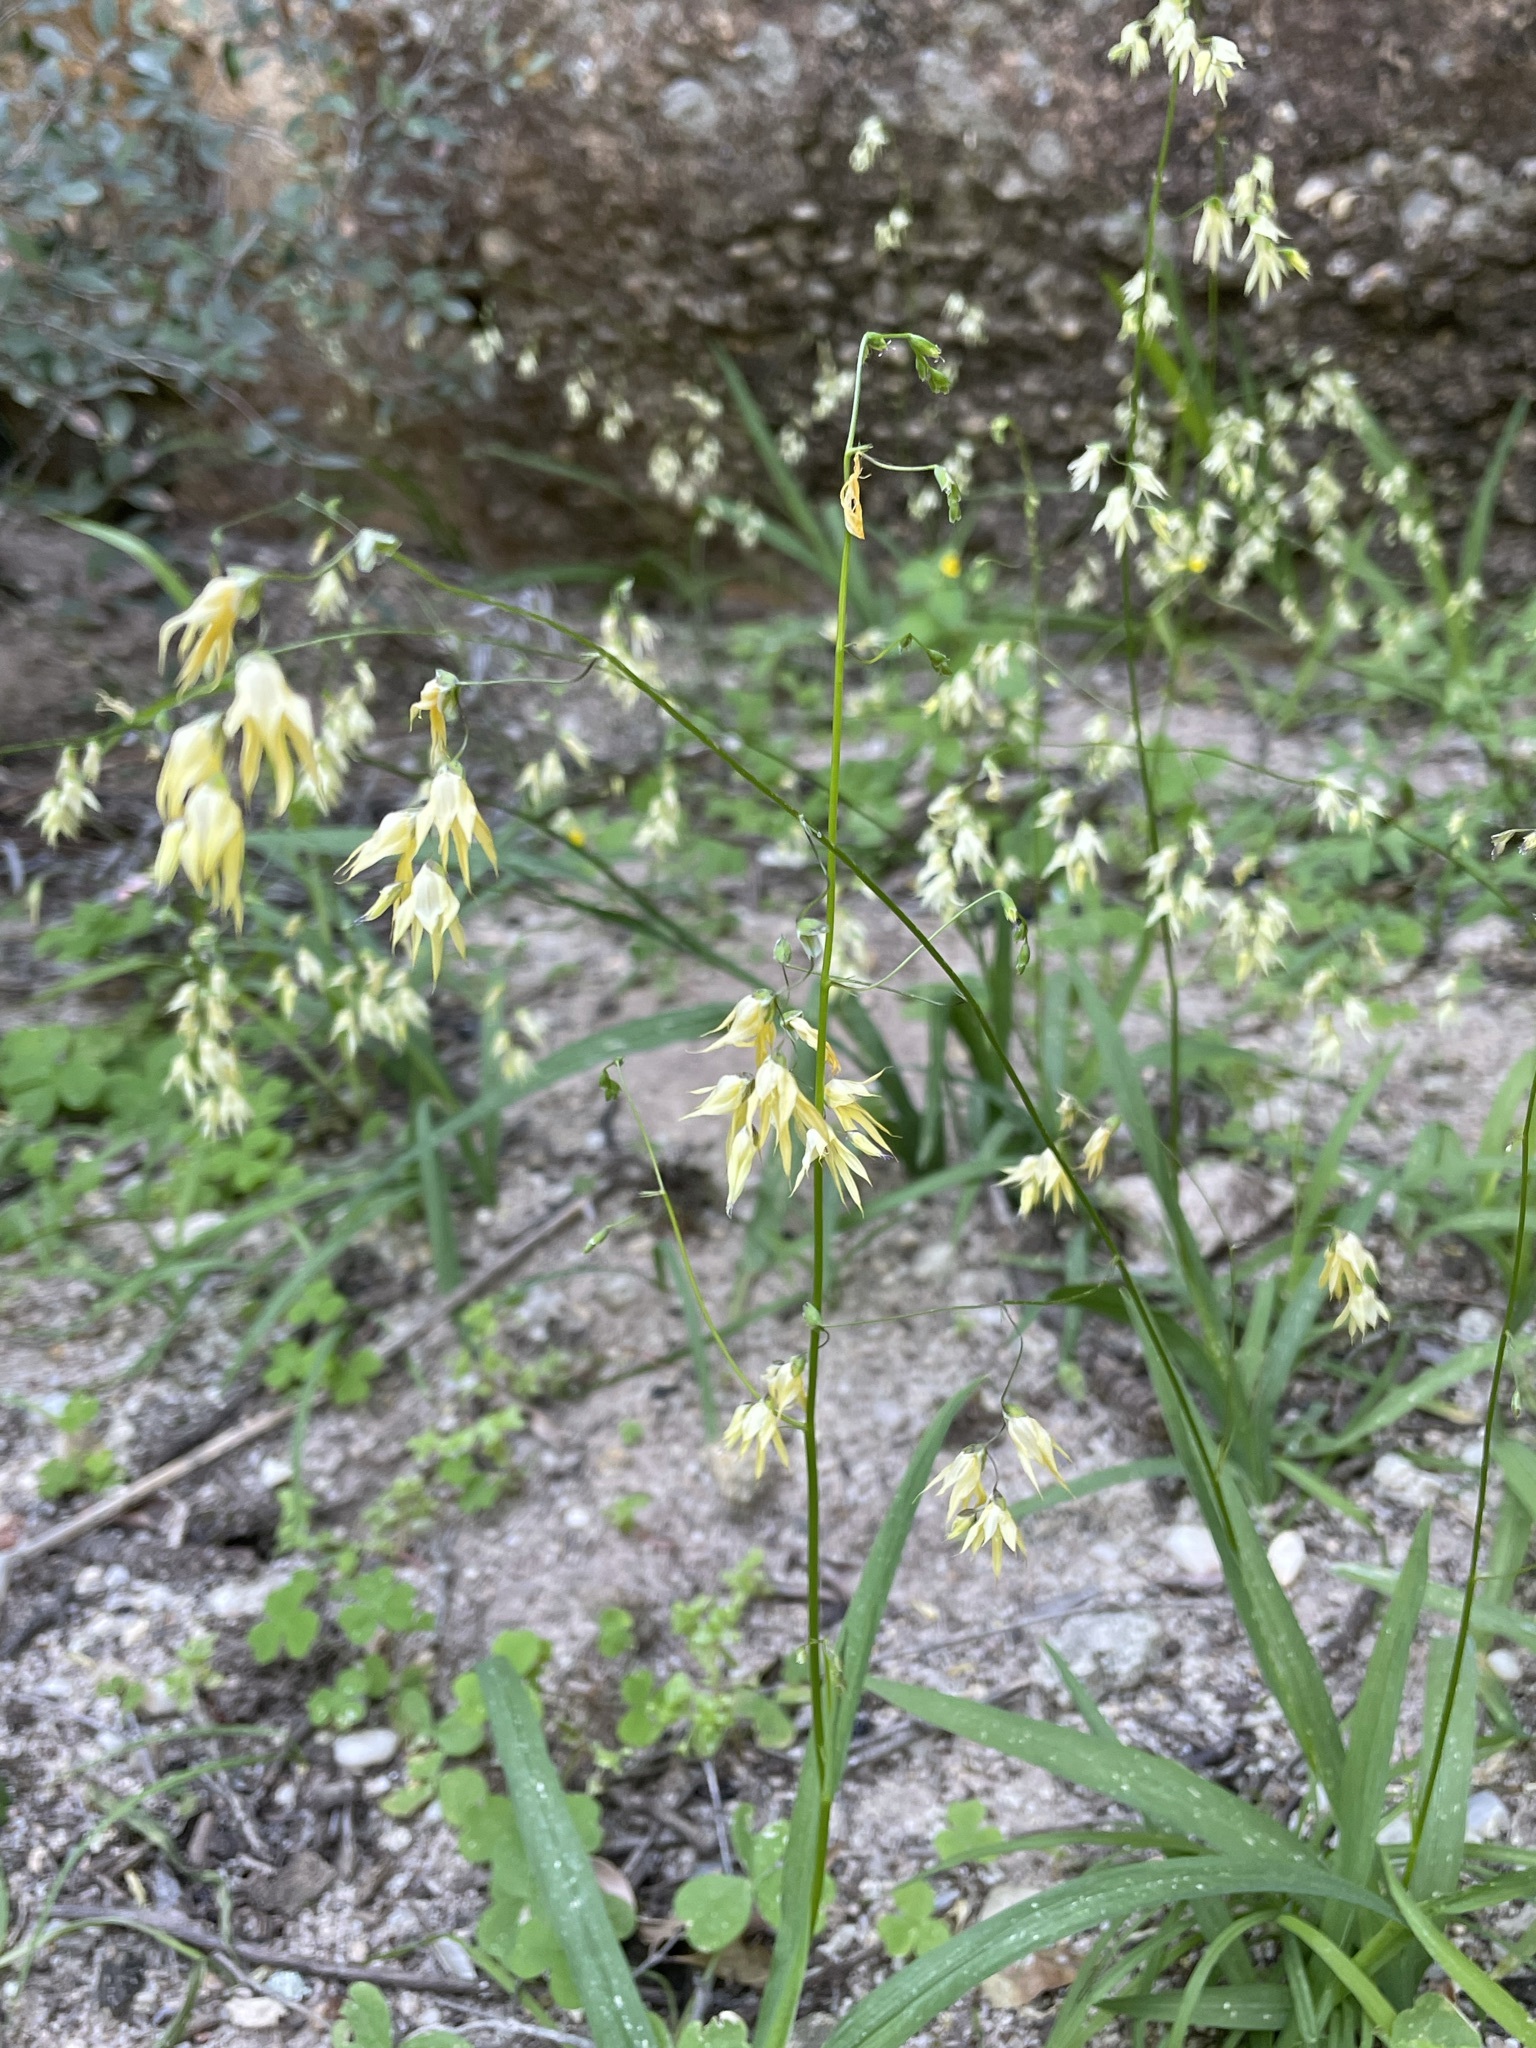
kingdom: Plantae
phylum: Tracheophyta
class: Liliopsida
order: Asparagales
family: Iridaceae
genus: Melasphaerula
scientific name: Melasphaerula graminea
